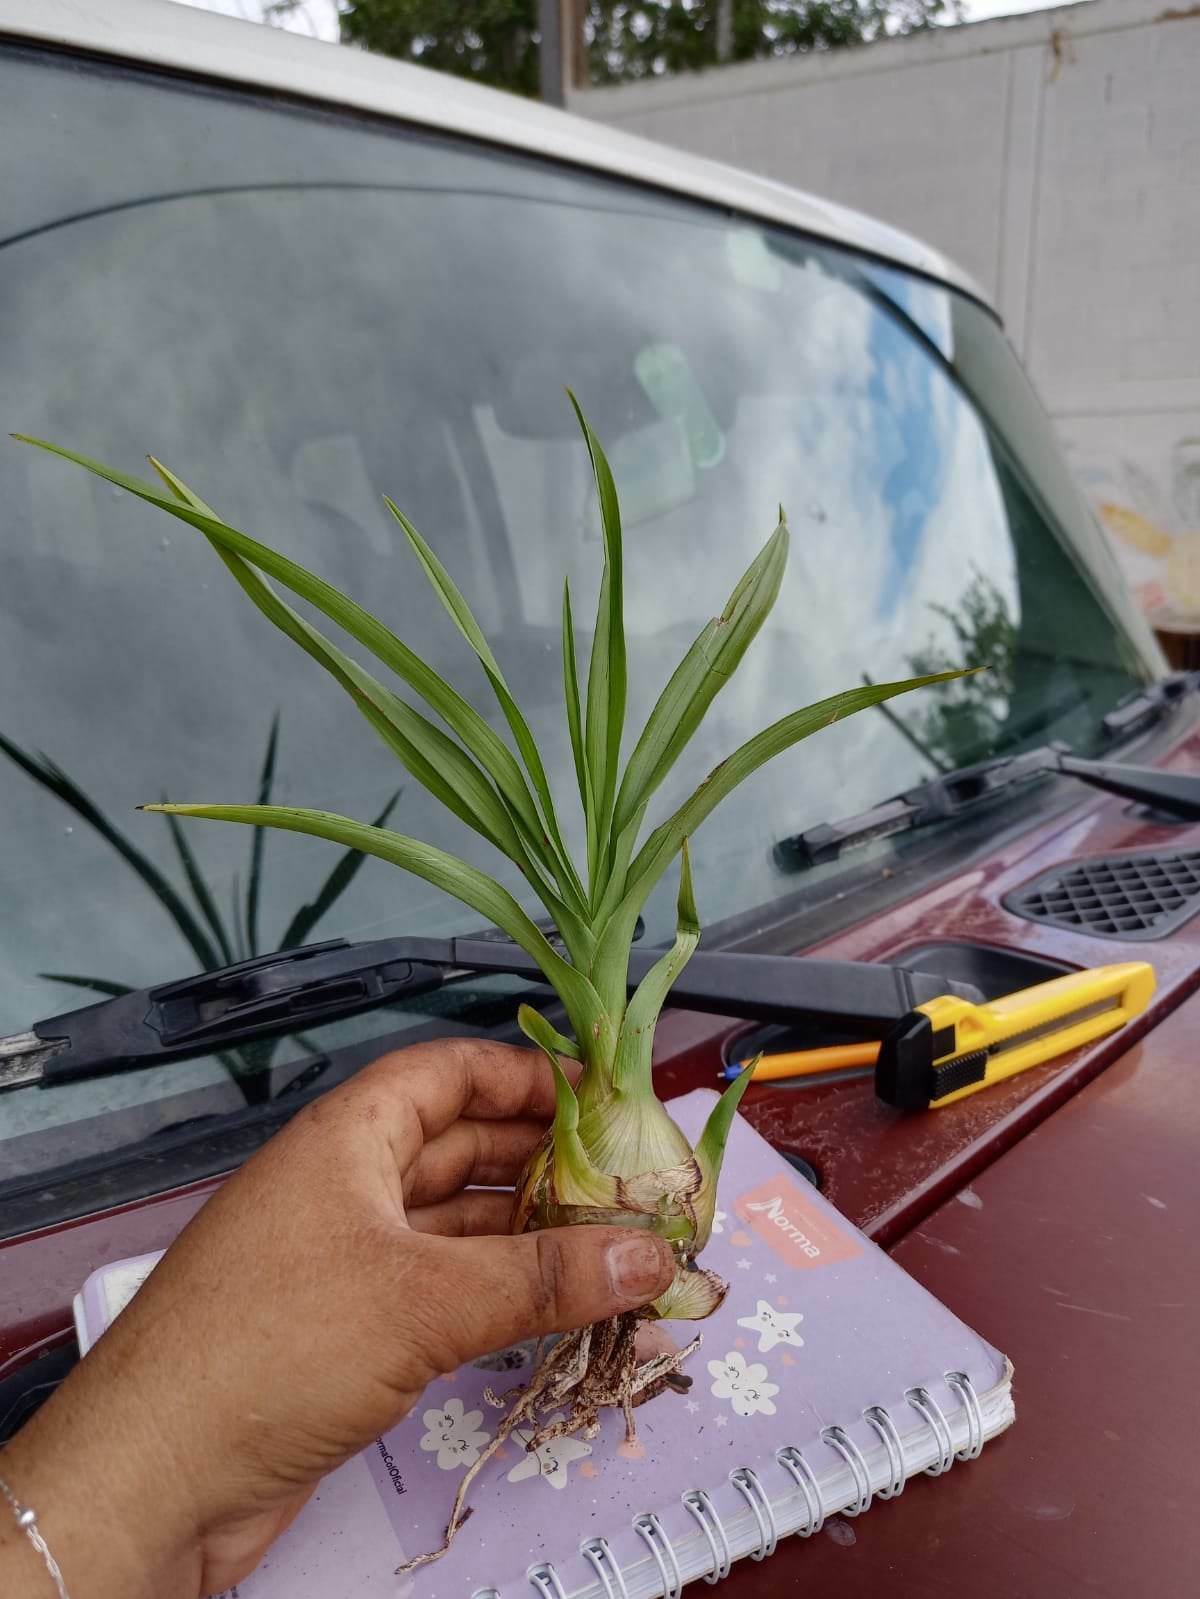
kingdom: Plantae
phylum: Tracheophyta
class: Liliopsida
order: Asparagales
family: Orchidaceae
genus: Eulophia
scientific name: Eulophia graminea
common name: Orchid
